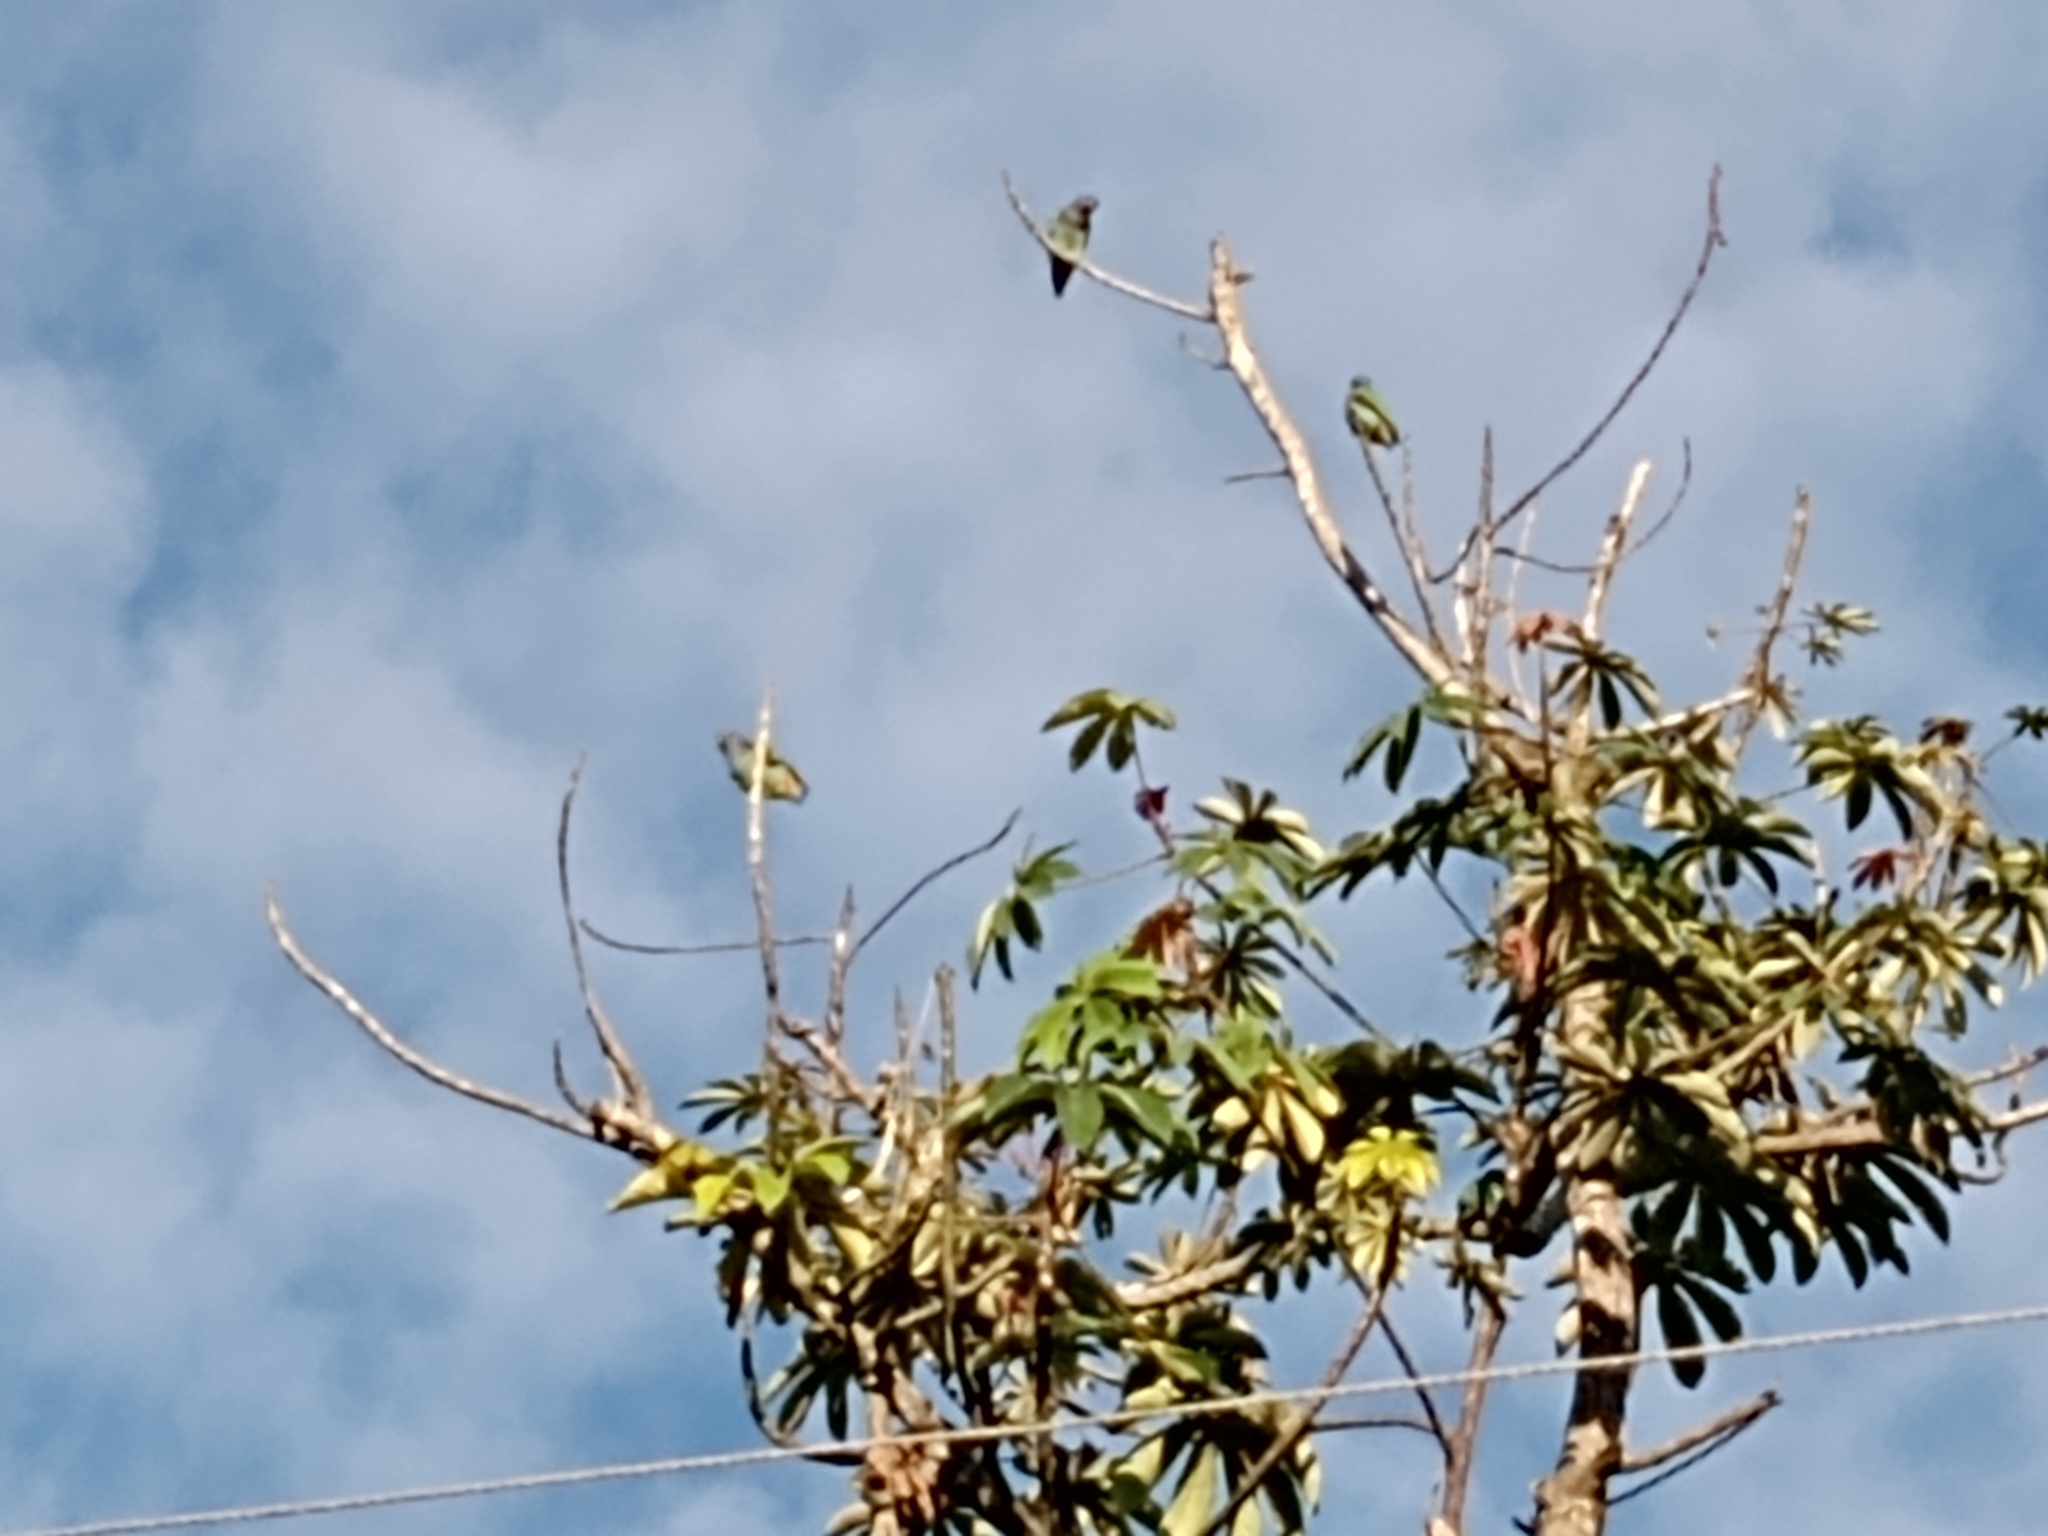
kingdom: Animalia
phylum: Chordata
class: Aves
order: Psittaciformes
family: Psittacidae
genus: Pionus
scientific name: Pionus menstruus
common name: Blue-headed parrot
